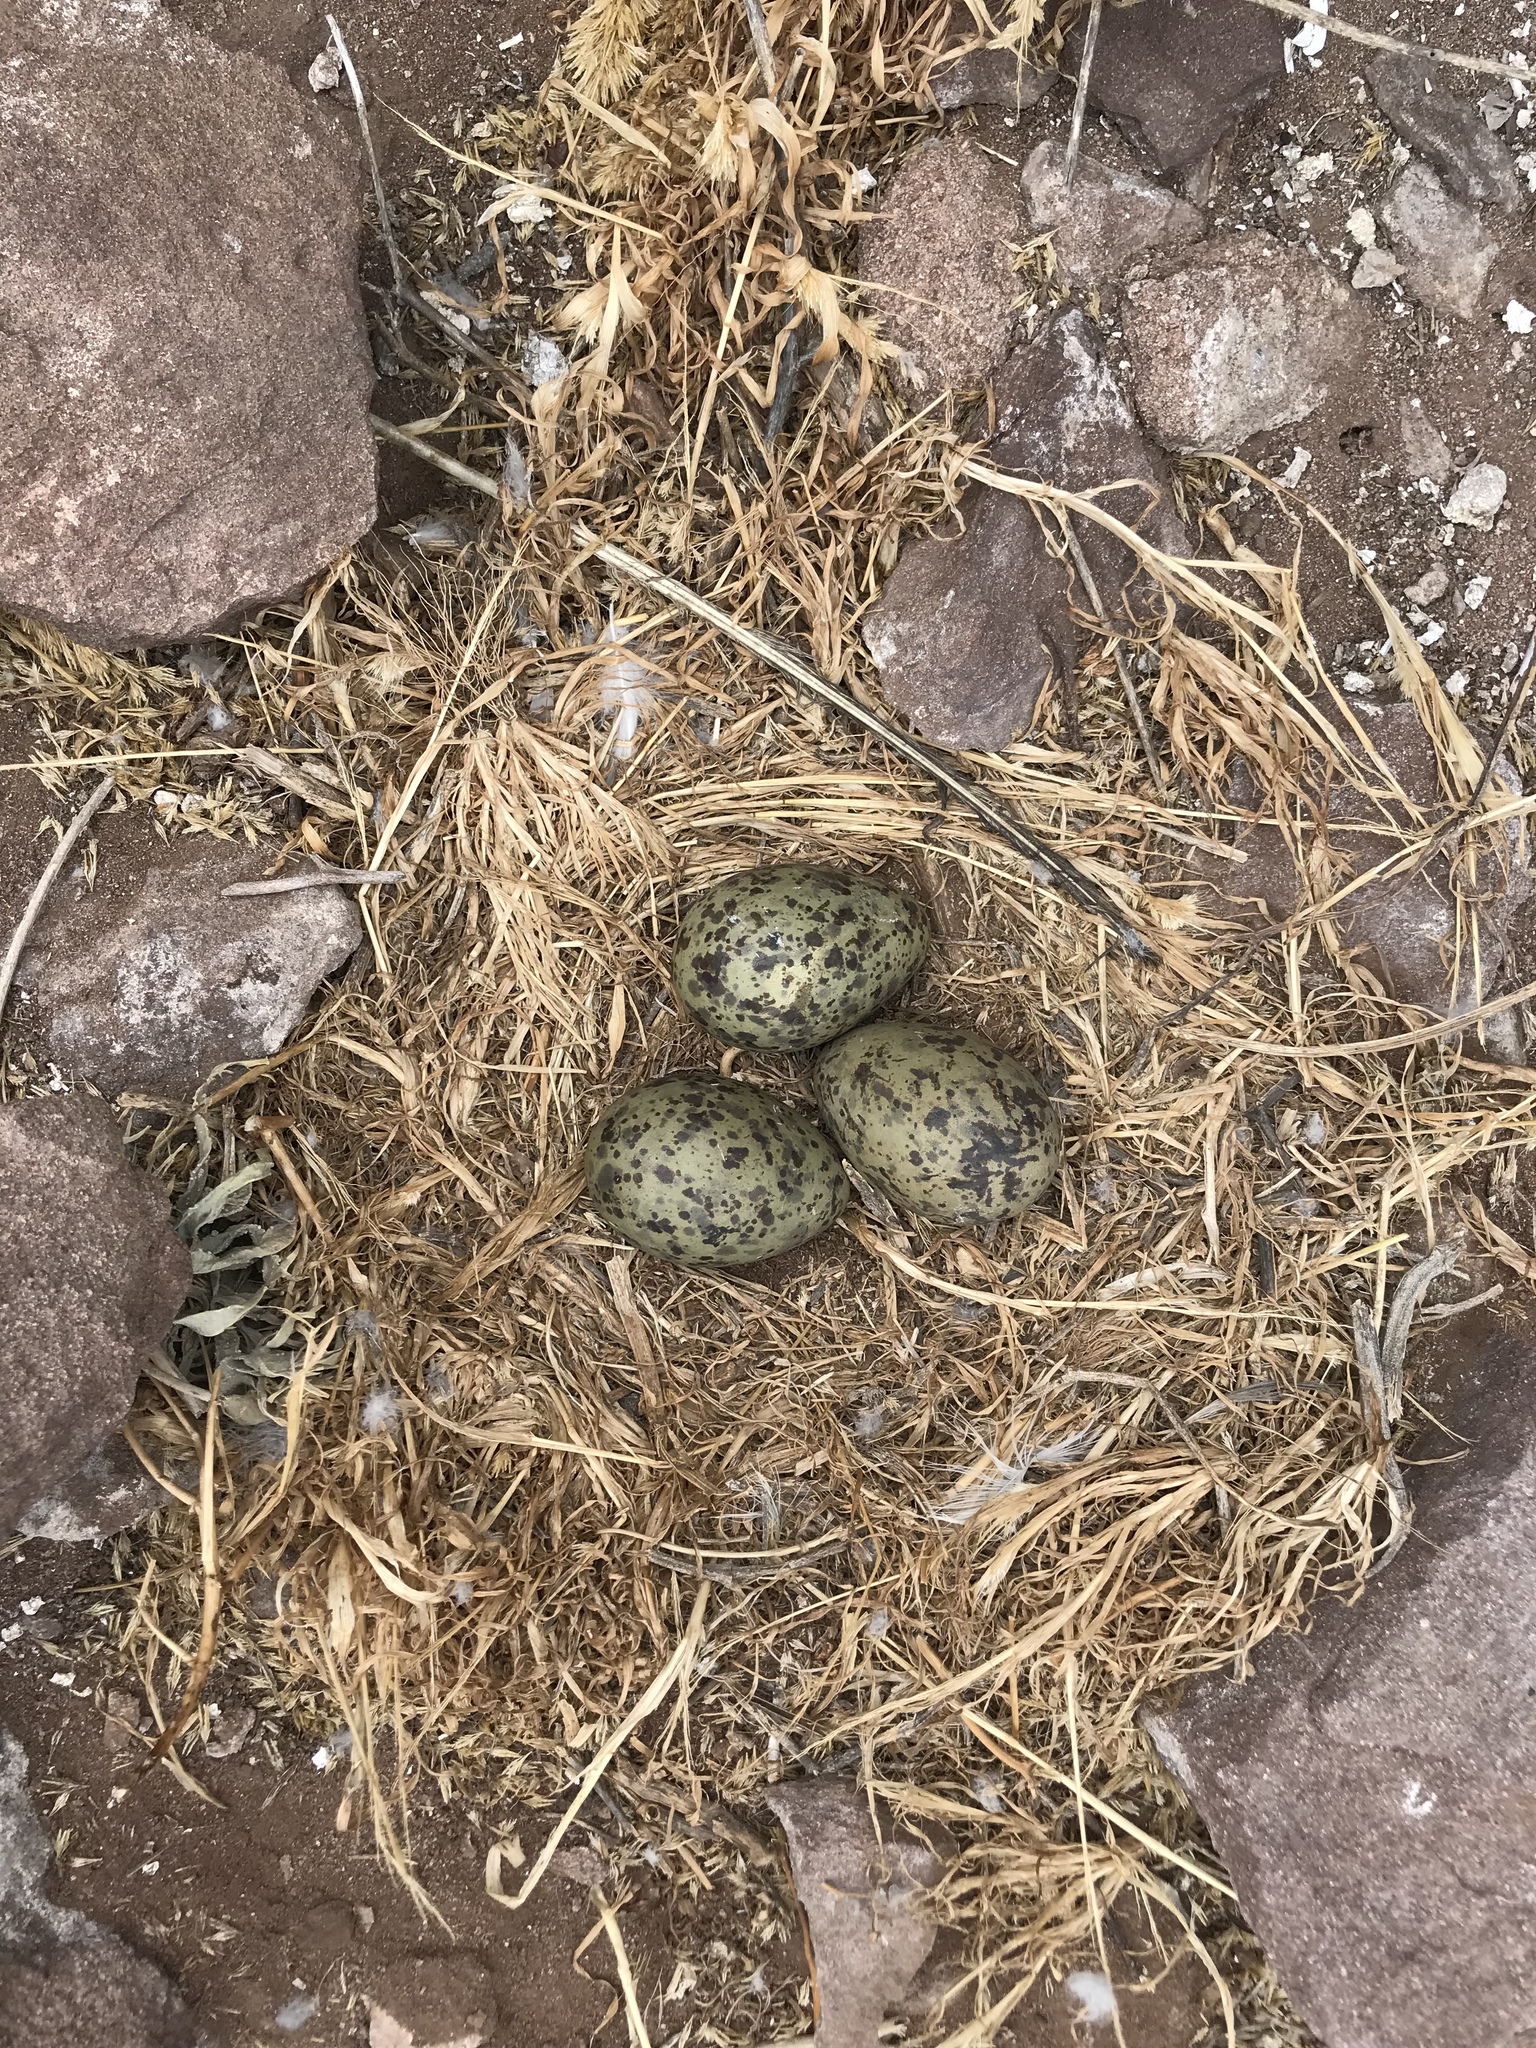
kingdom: Animalia
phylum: Chordata
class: Aves
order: Charadriiformes
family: Laridae
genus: Larus
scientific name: Larus occidentalis
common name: Western gull
